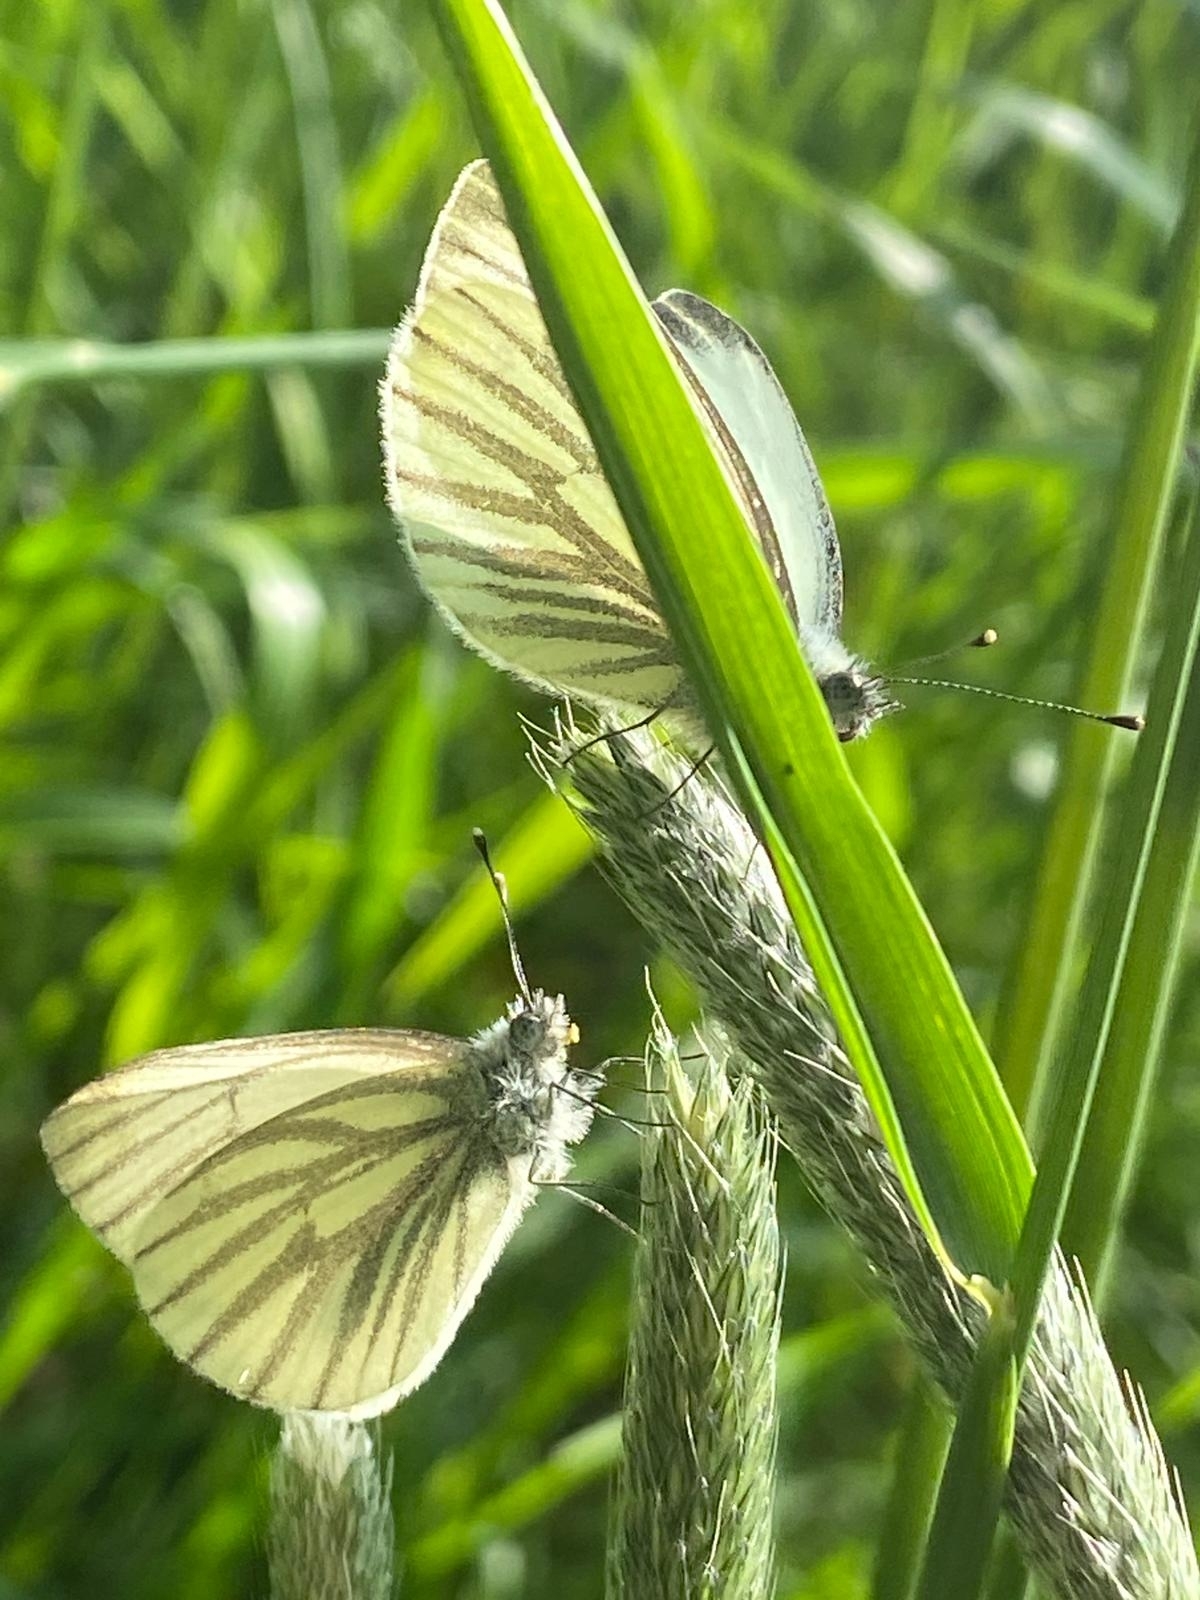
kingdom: Animalia
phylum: Arthropoda
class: Insecta
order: Lepidoptera
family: Pieridae
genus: Pieris
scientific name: Pieris napi
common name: Green-veined white
